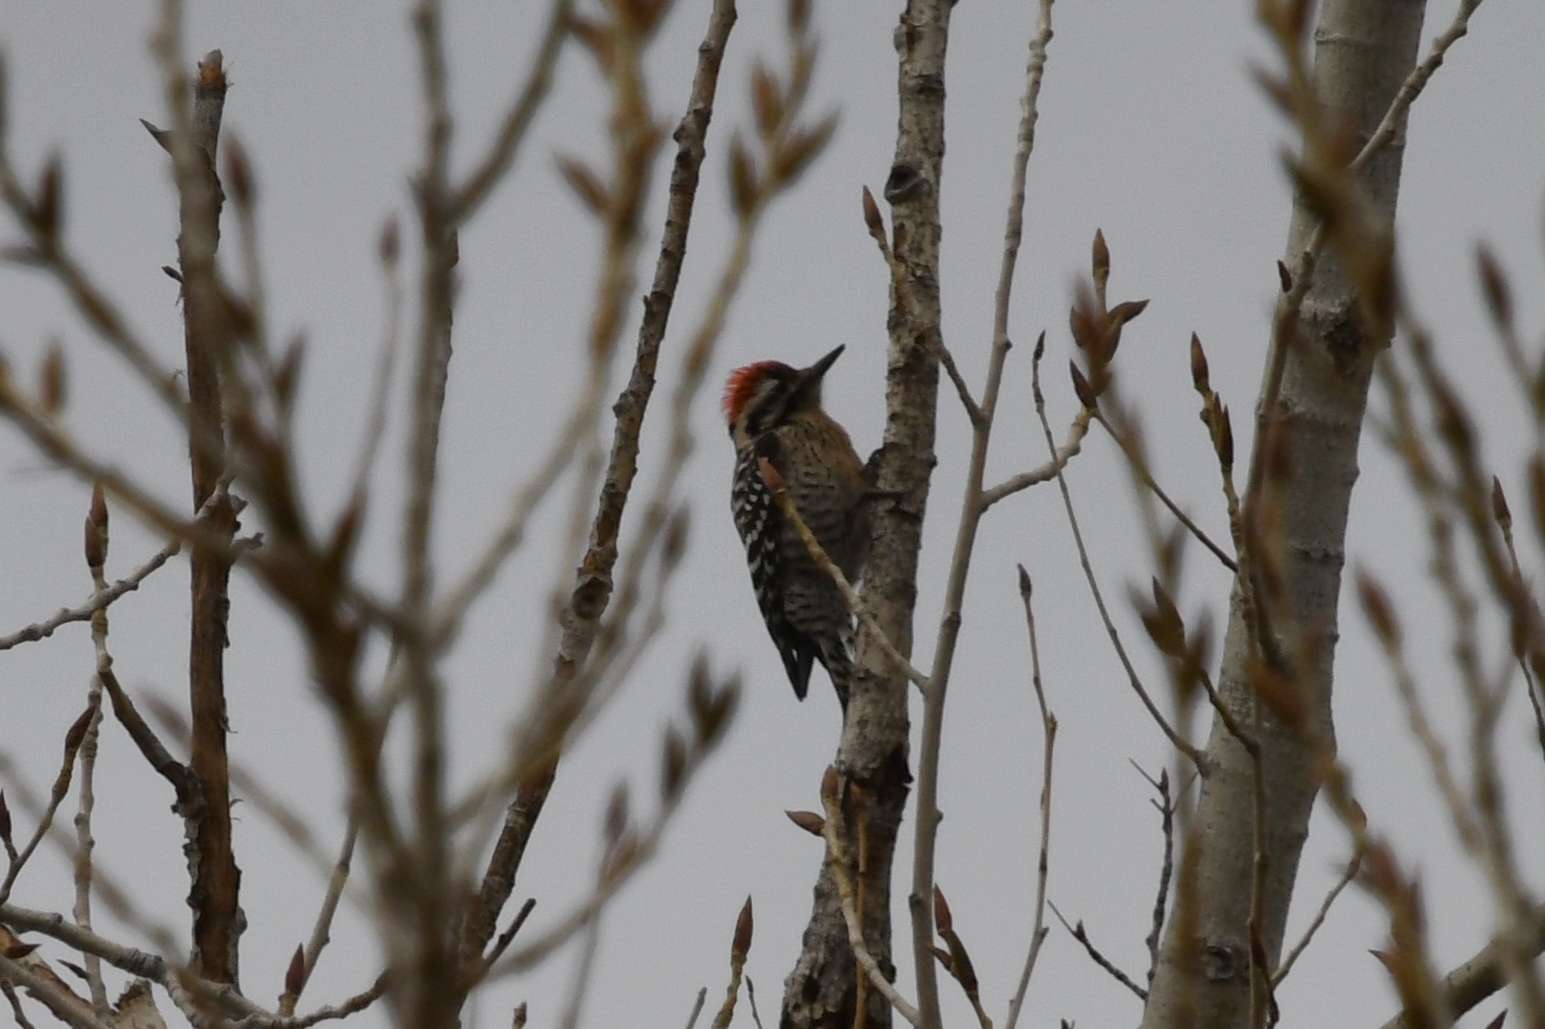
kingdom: Animalia
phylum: Chordata
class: Aves
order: Piciformes
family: Picidae
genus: Dryobates
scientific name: Dryobates scalaris
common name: Ladder-backed woodpecker
